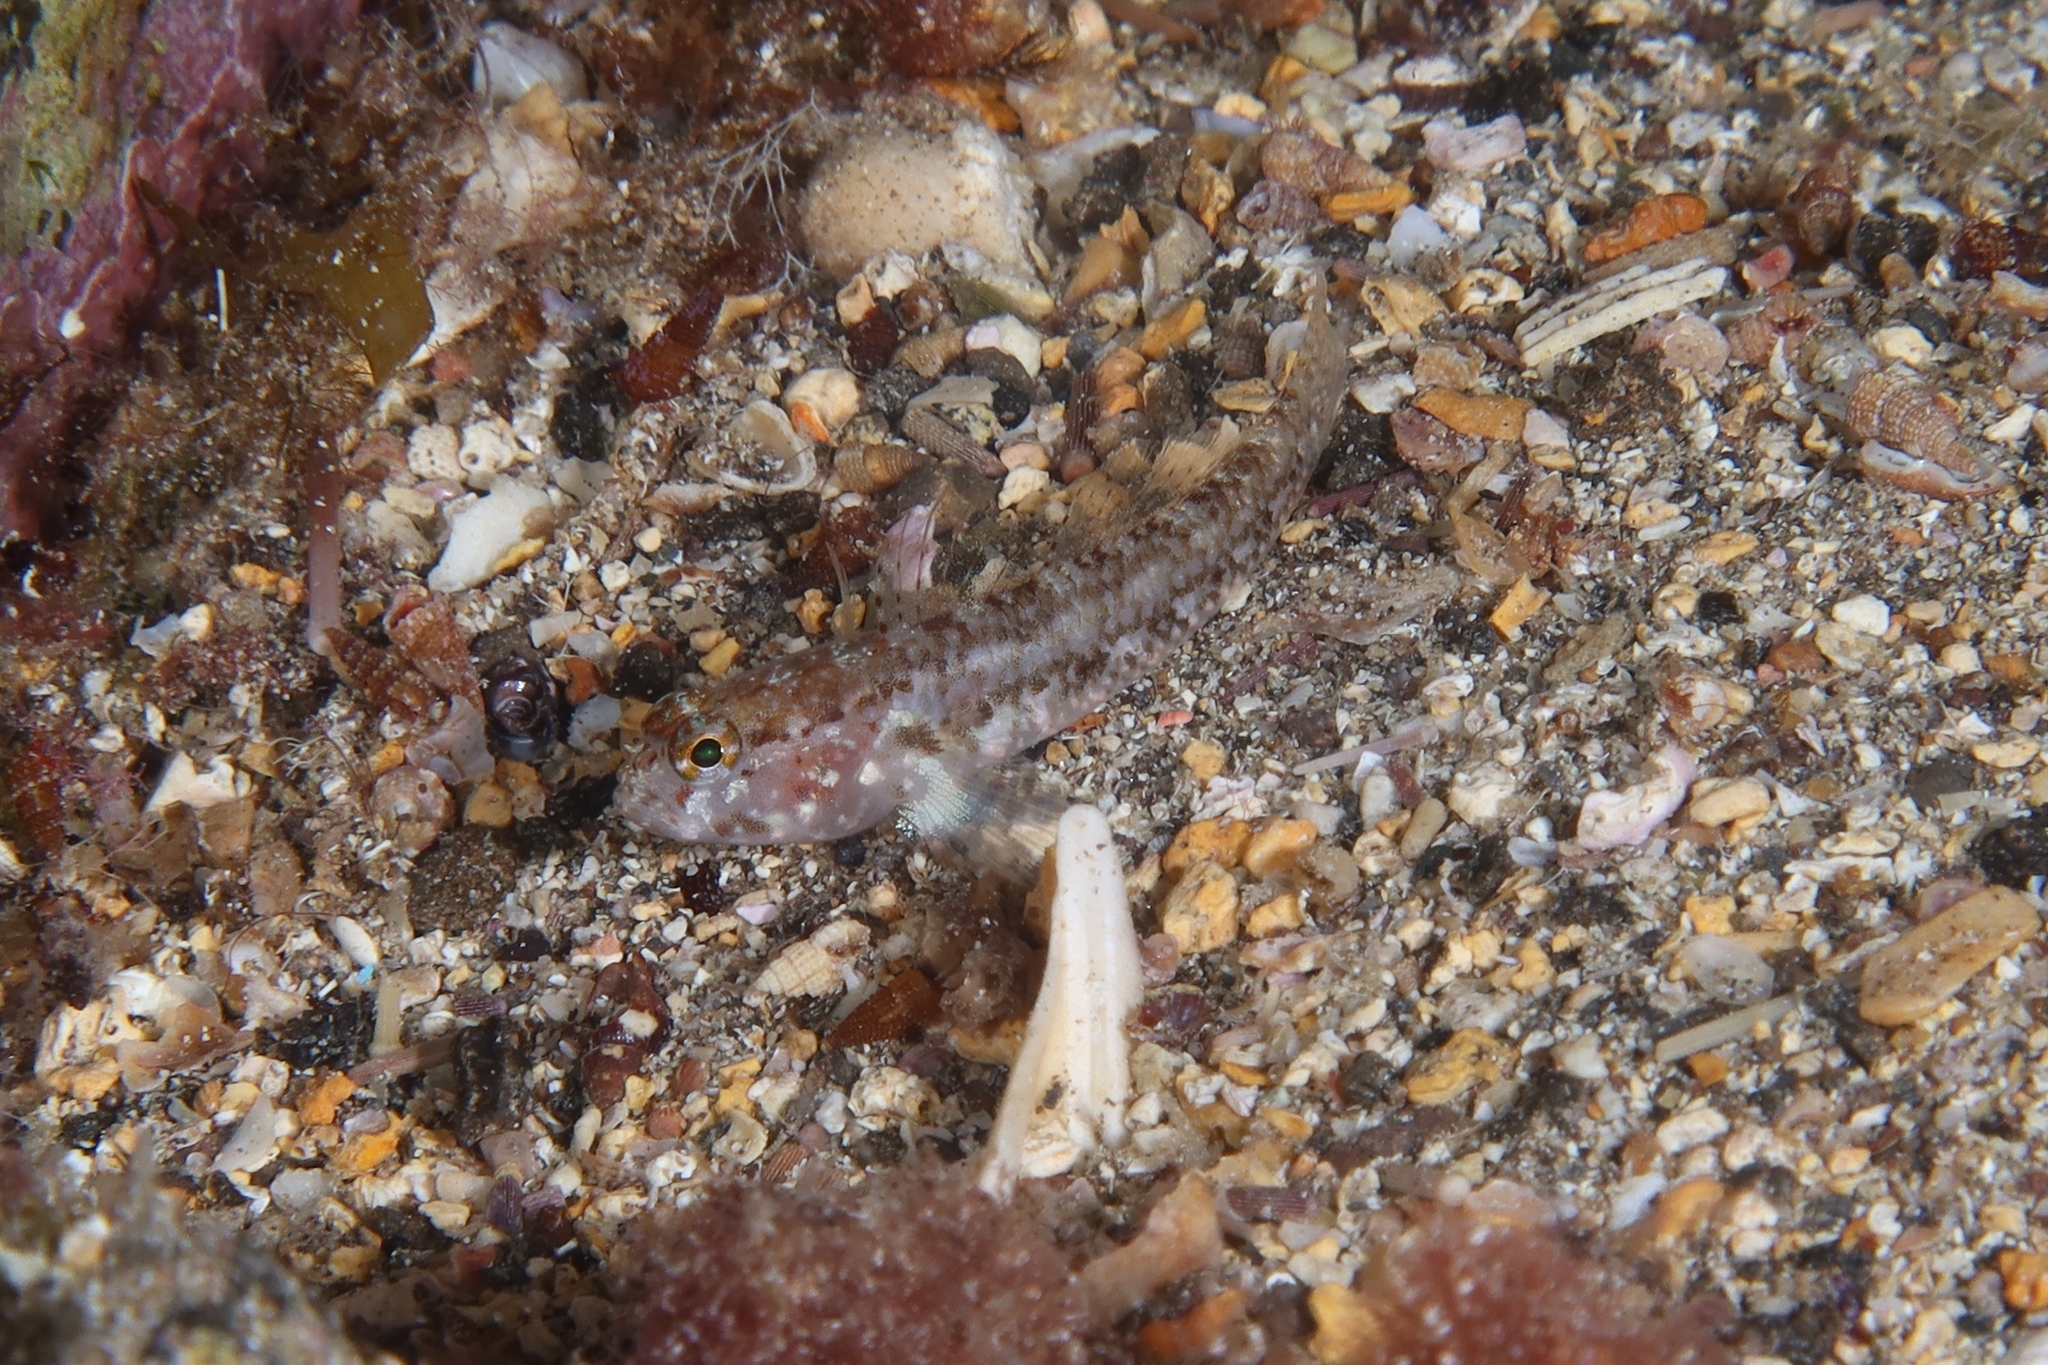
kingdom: Animalia
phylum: Chordata
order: Perciformes
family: Gobiidae
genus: Vanneaugobius
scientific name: Vanneaugobius canariensis
